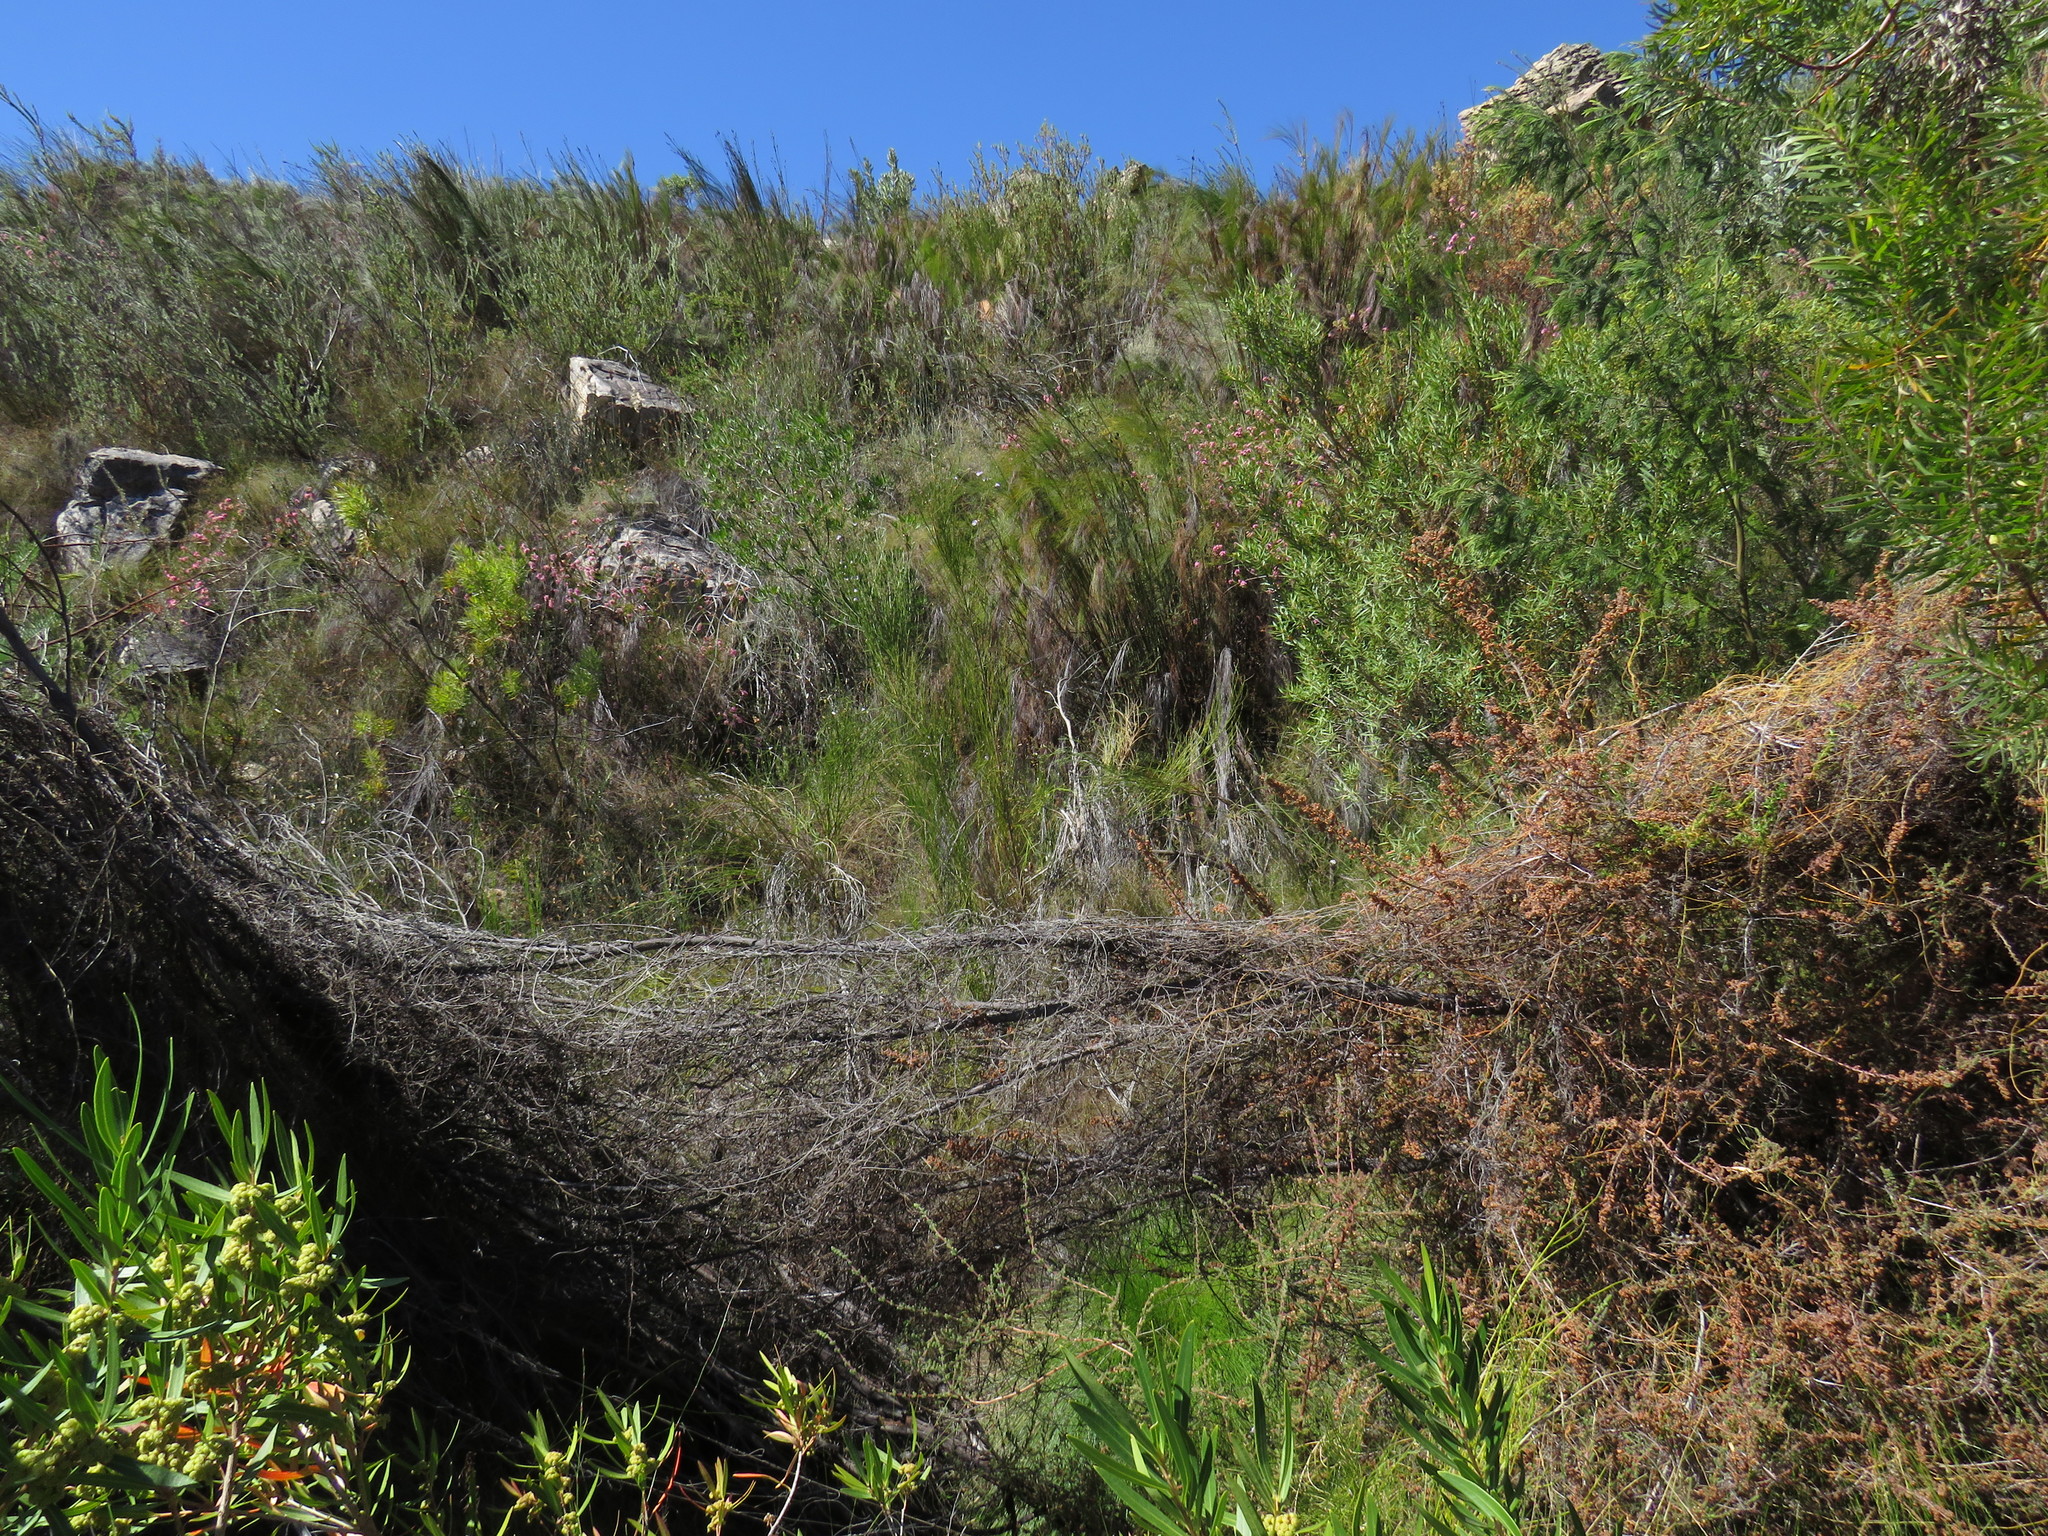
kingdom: Plantae
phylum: Tracheophyta
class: Magnoliopsida
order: Fabales
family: Fabaceae
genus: Psoralea
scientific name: Psoralea usitata
